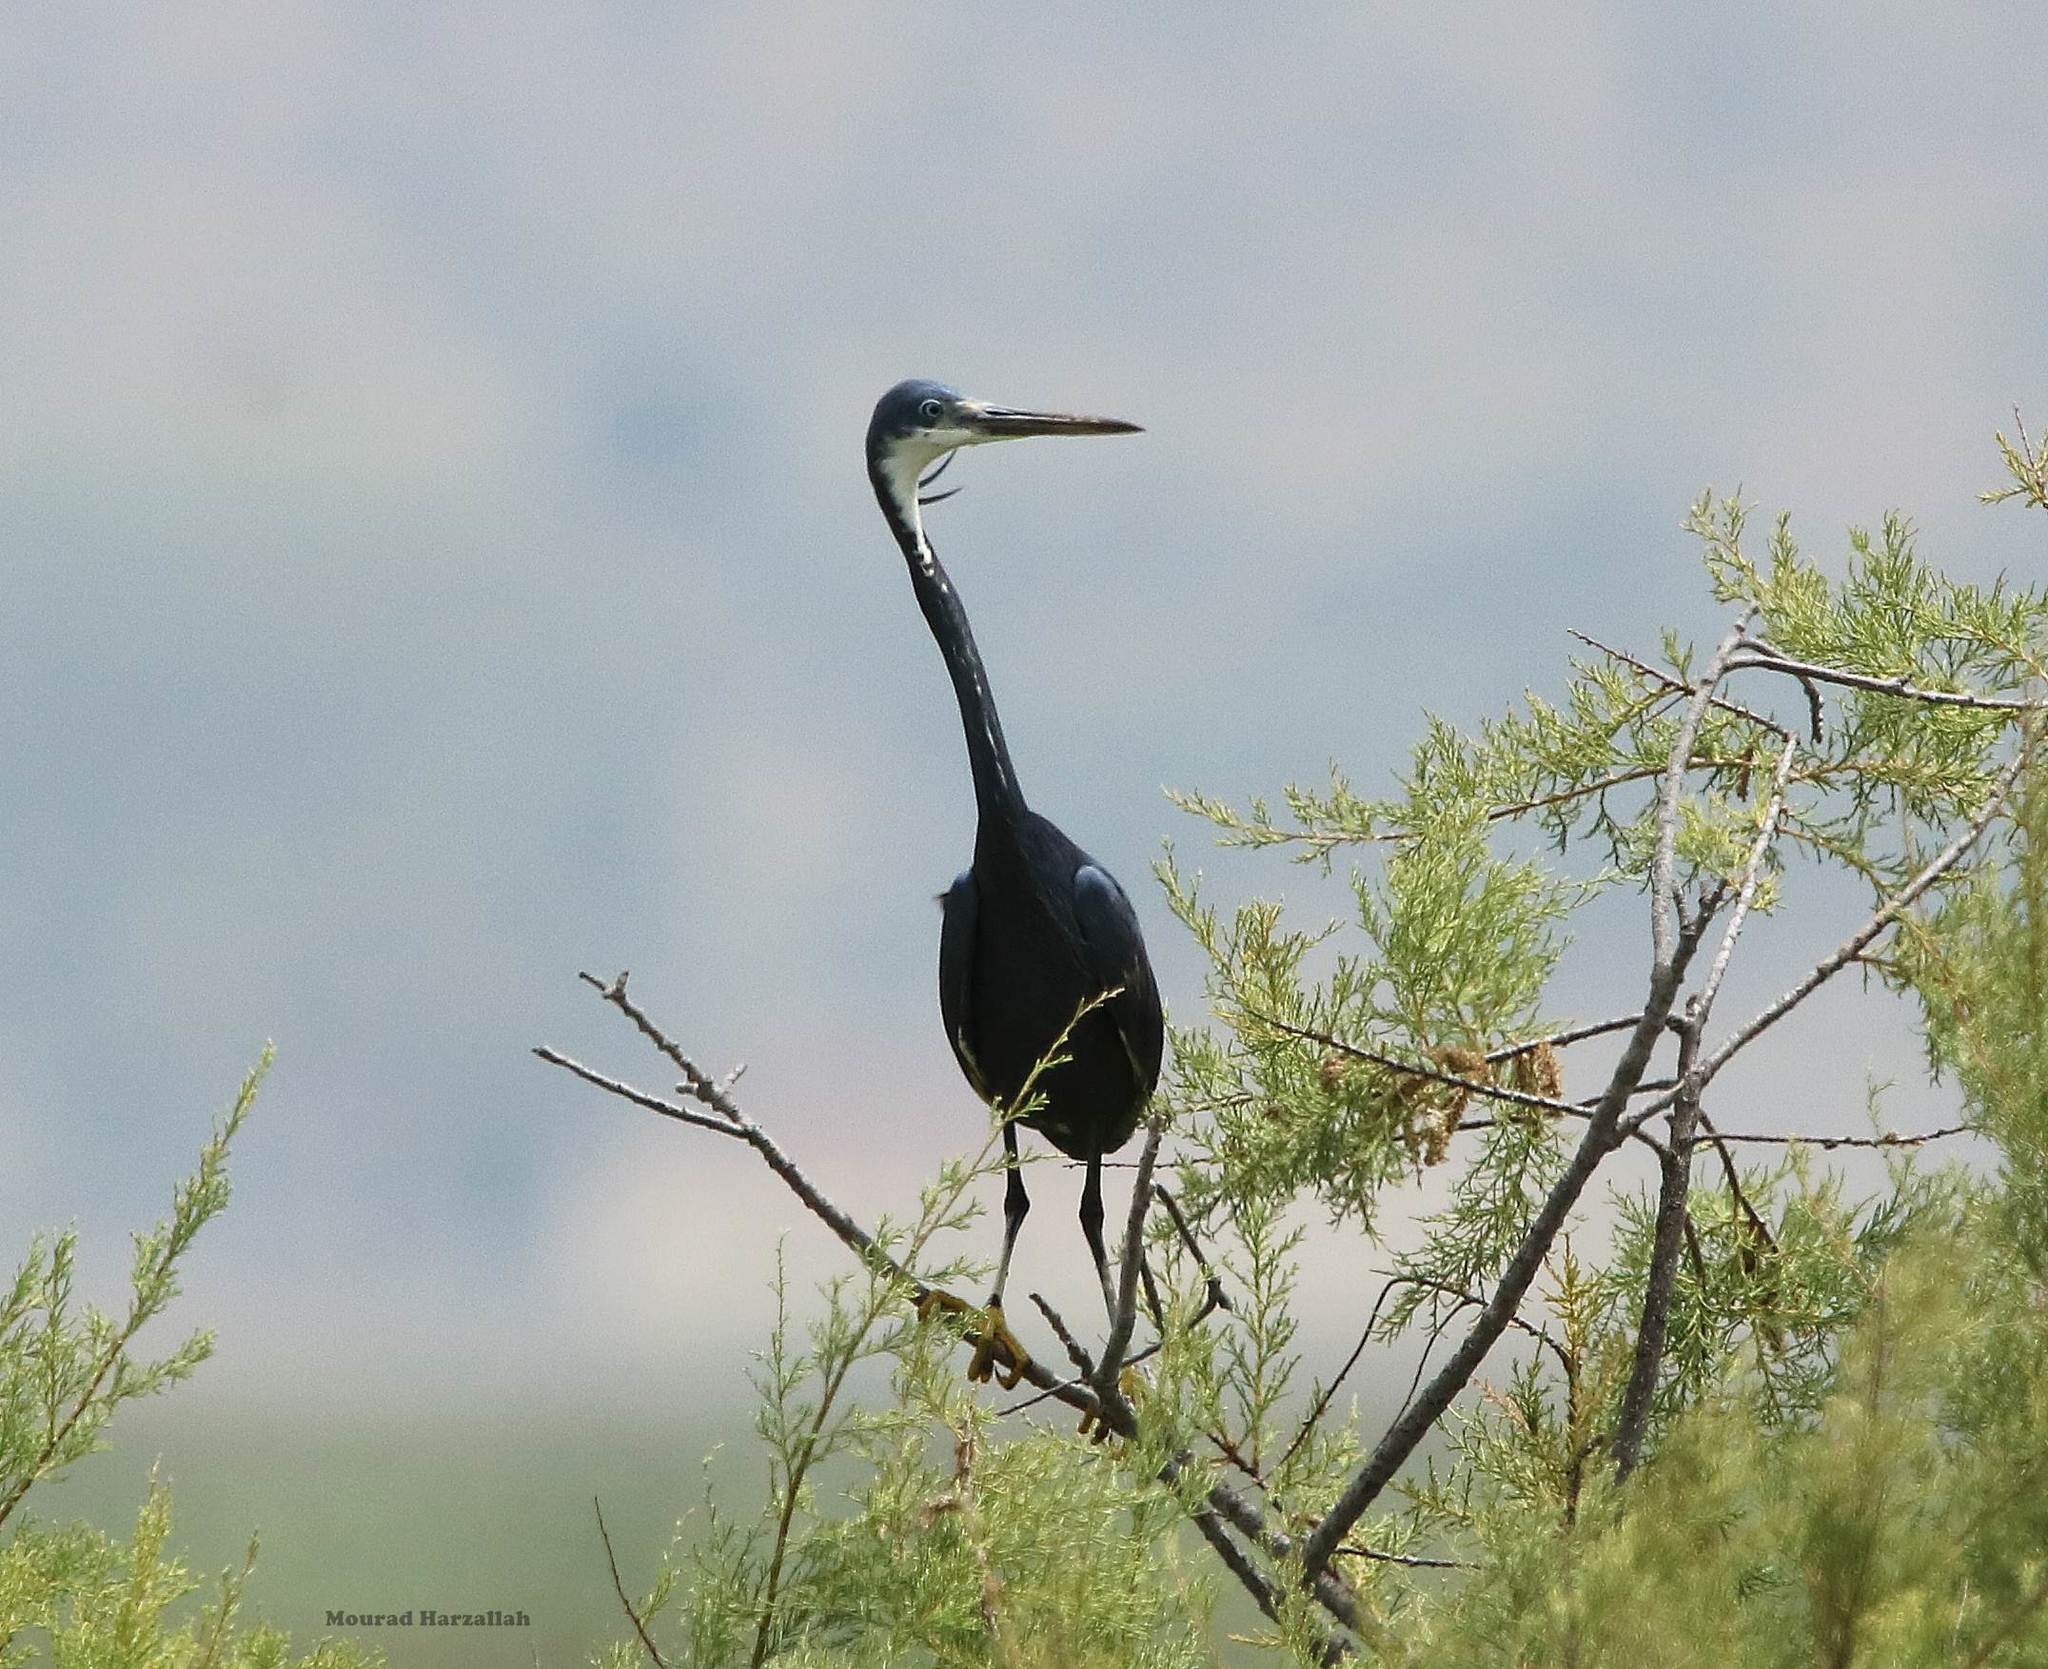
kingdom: Animalia
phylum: Chordata
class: Aves
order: Pelecaniformes
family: Ardeidae
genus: Egretta
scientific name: Egretta gularis
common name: Western reef-heron
